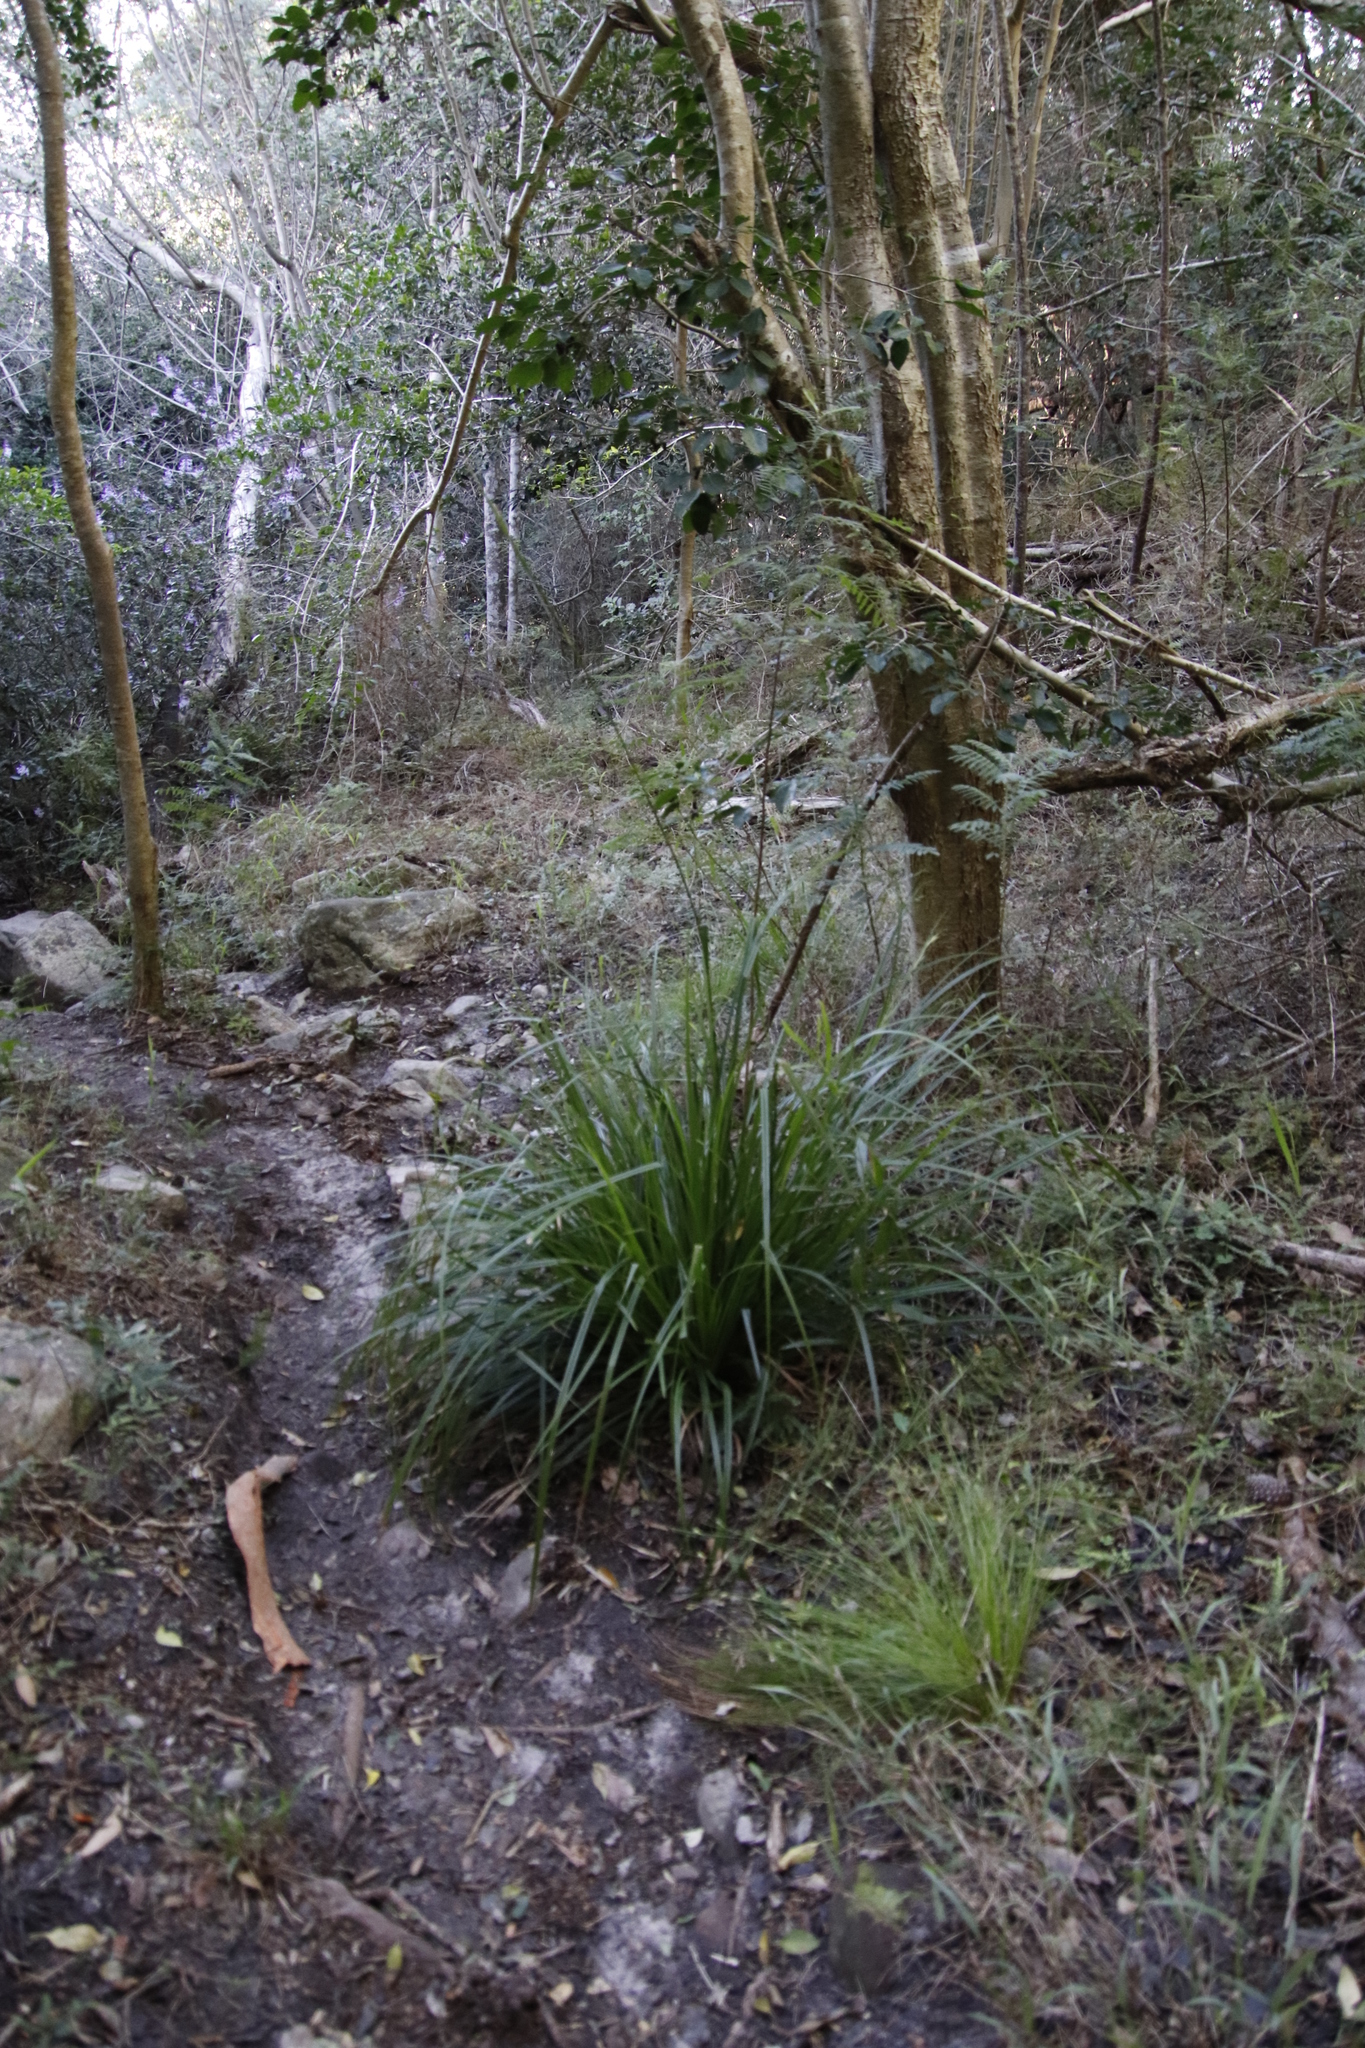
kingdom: Plantae
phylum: Tracheophyta
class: Liliopsida
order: Poales
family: Cyperaceae
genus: Carex
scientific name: Carex lancea
